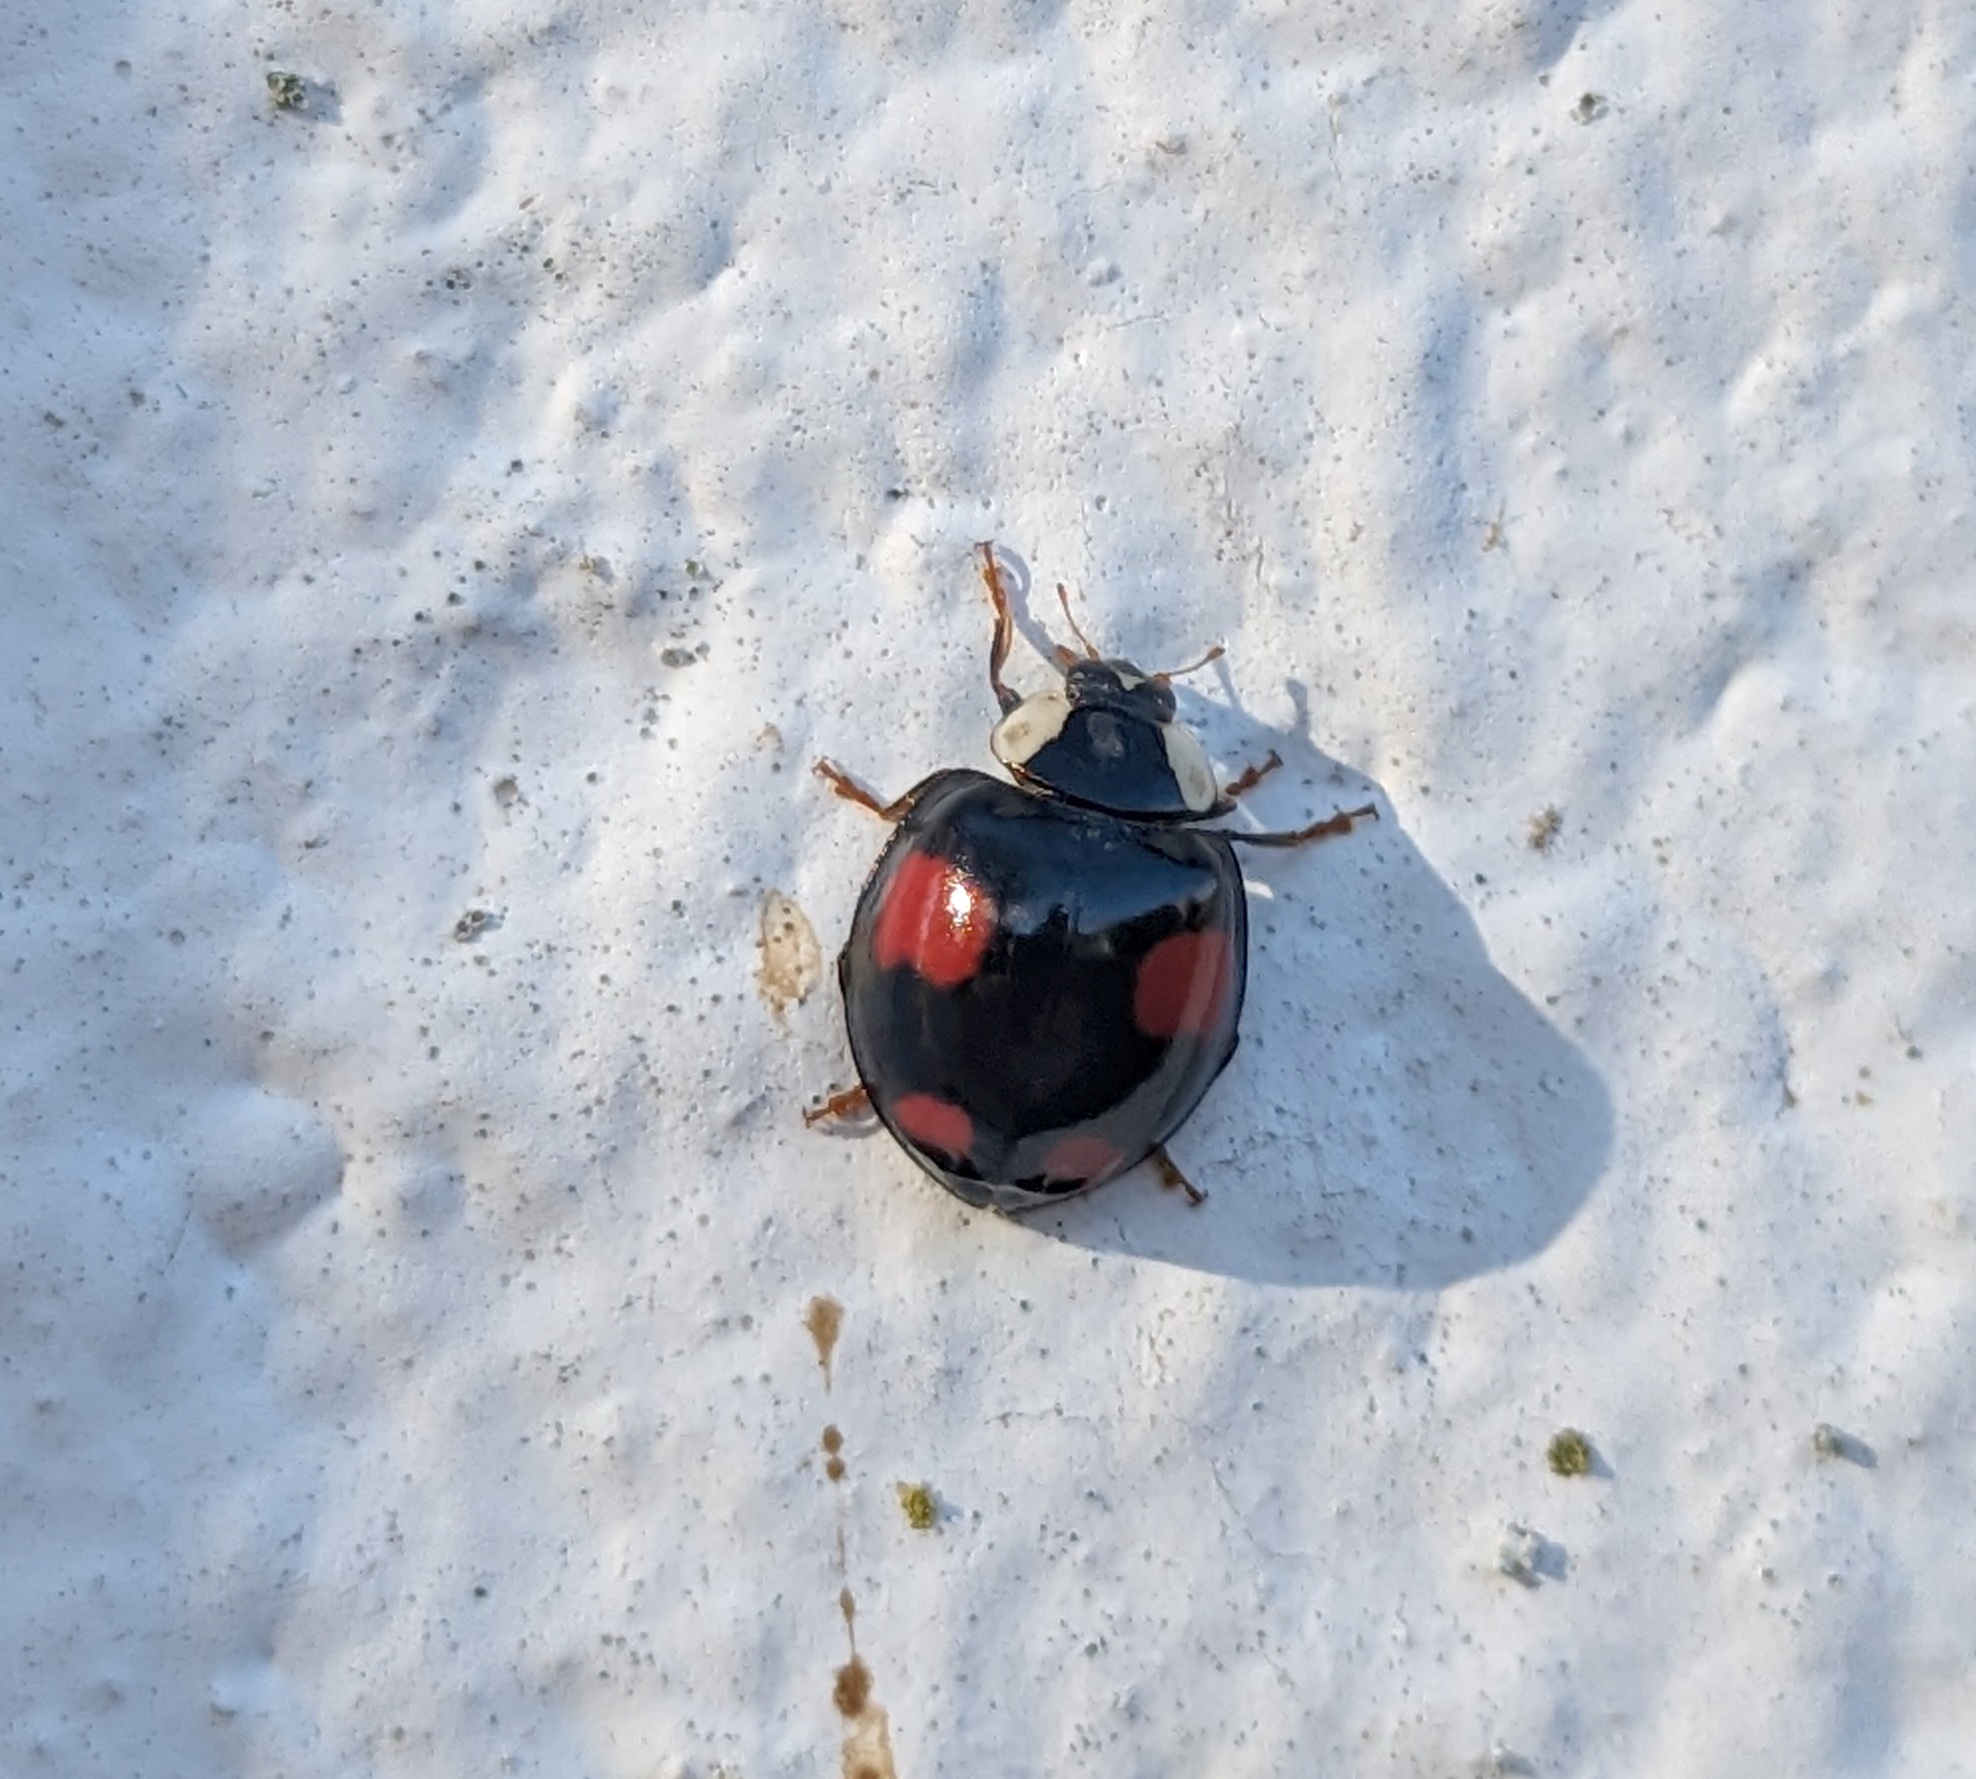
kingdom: Animalia
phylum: Arthropoda
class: Insecta
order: Coleoptera
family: Coccinellidae
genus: Harmonia
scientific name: Harmonia axyridis
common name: Harlequin ladybird
